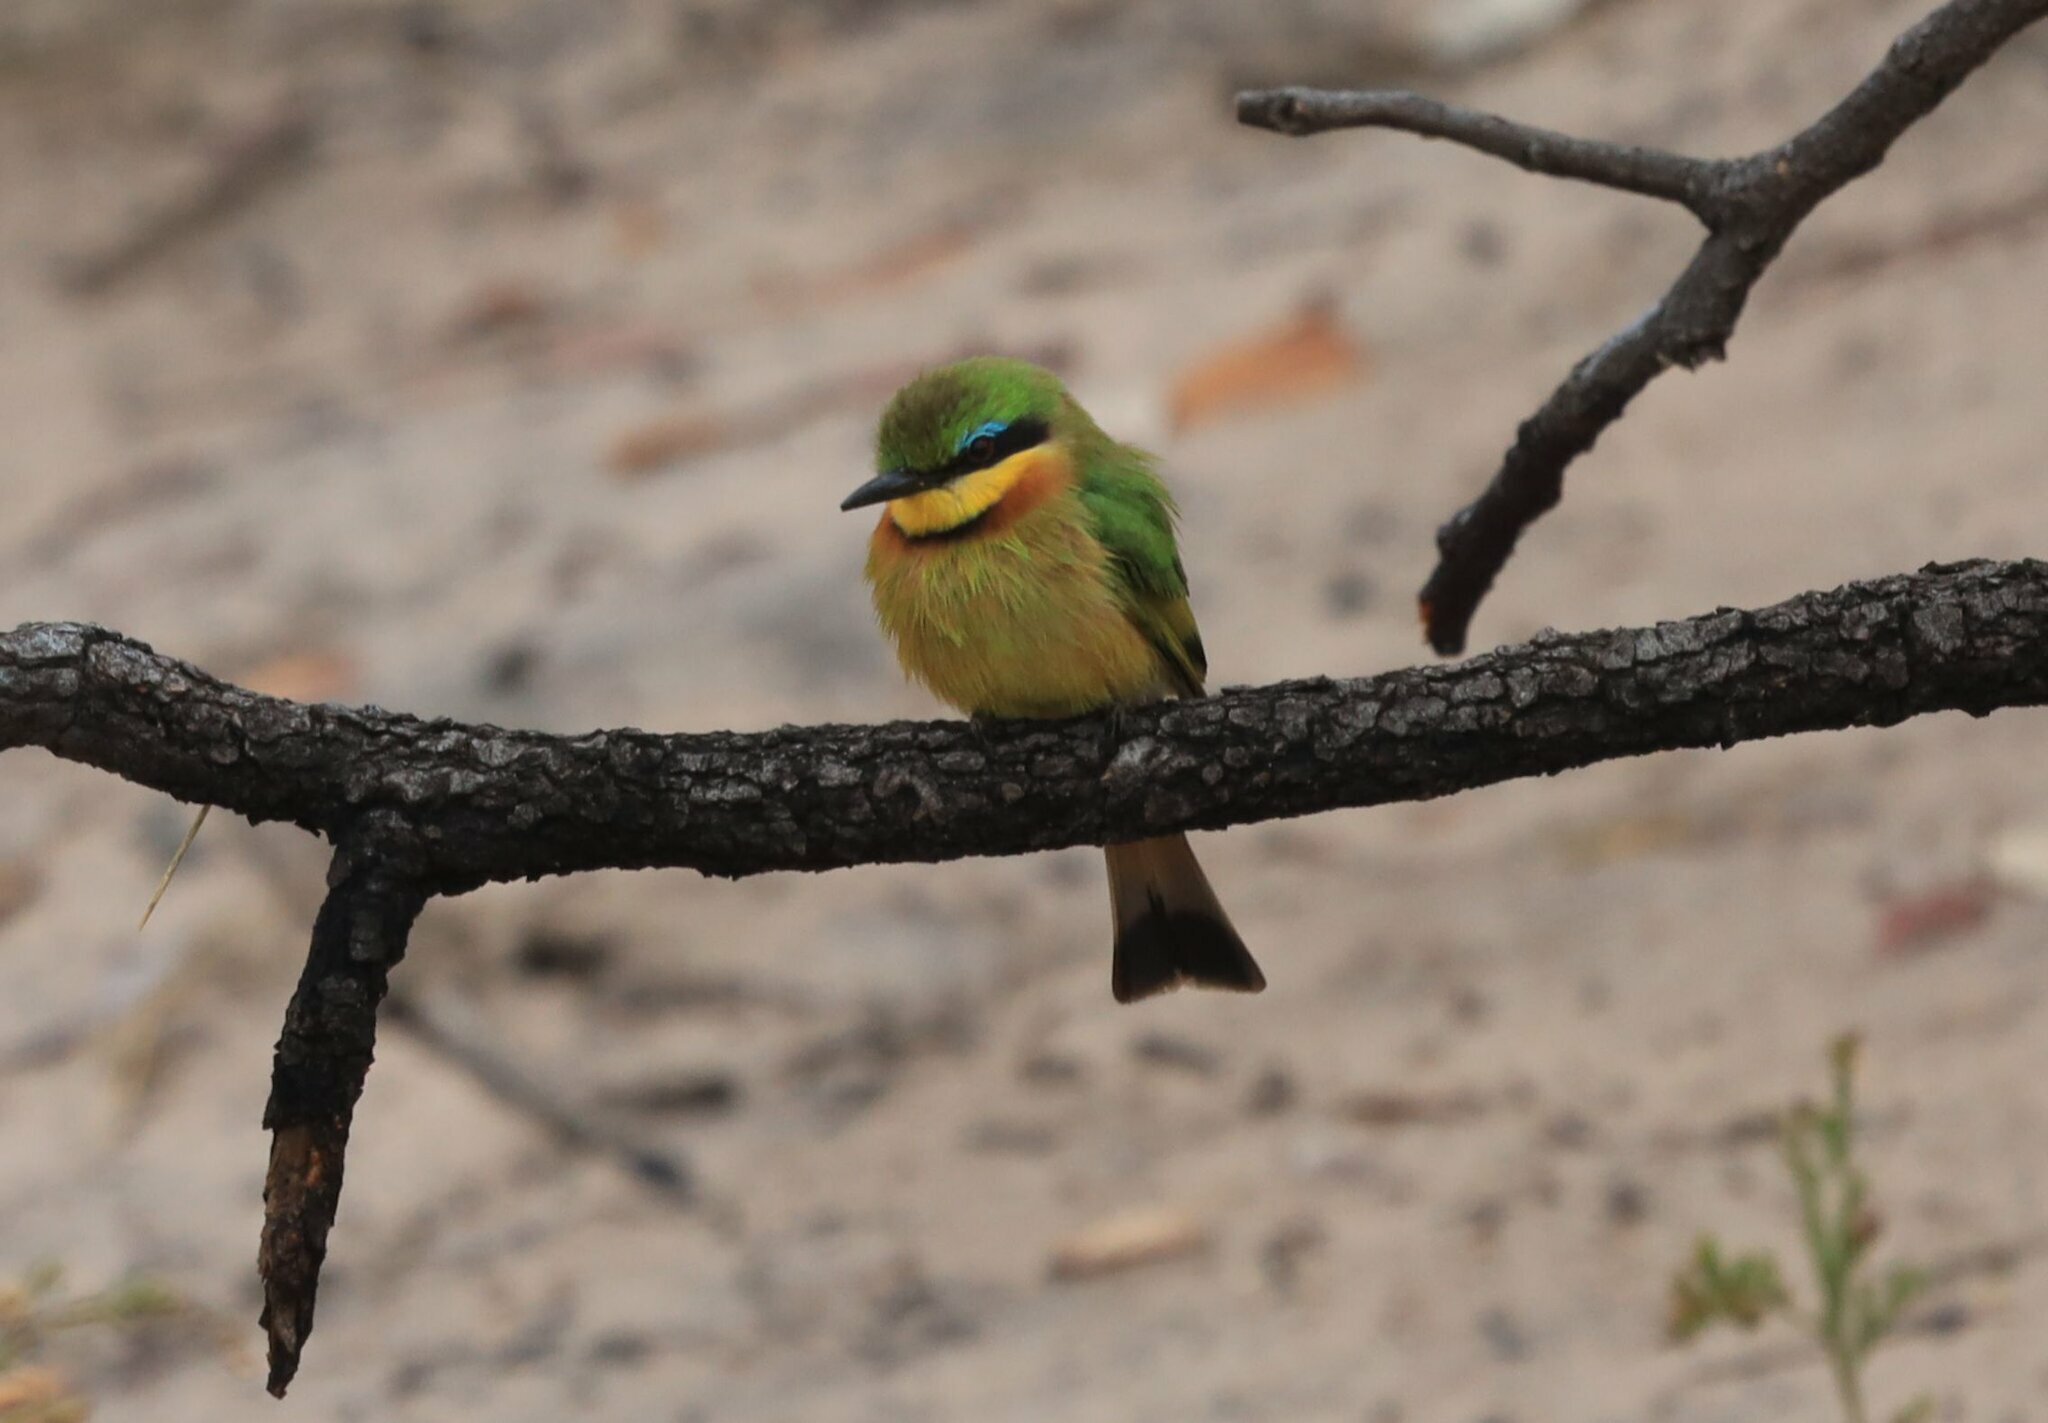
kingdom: Animalia
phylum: Chordata
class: Aves
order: Coraciiformes
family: Meropidae
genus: Merops
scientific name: Merops pusillus
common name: Little bee-eater
